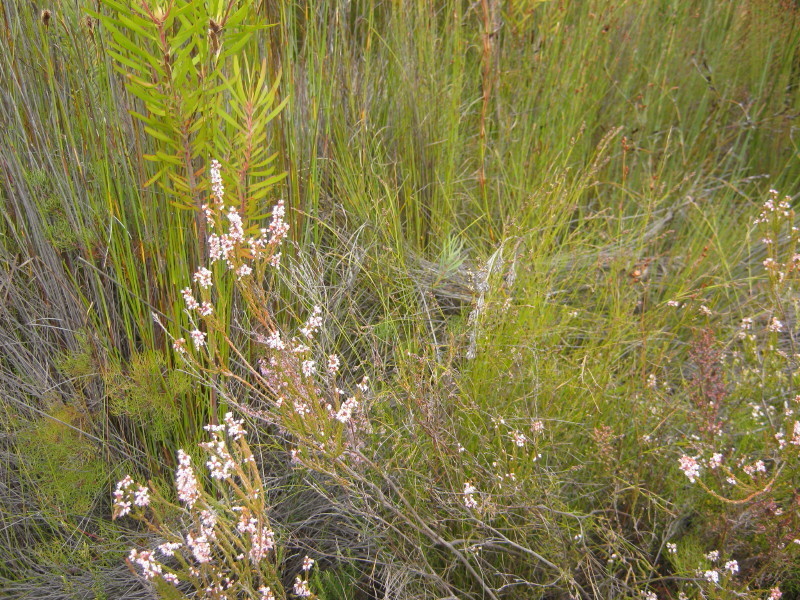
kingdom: Plantae
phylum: Tracheophyta
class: Magnoliopsida
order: Ericales
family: Ericaceae
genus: Erica
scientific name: Erica articularis
